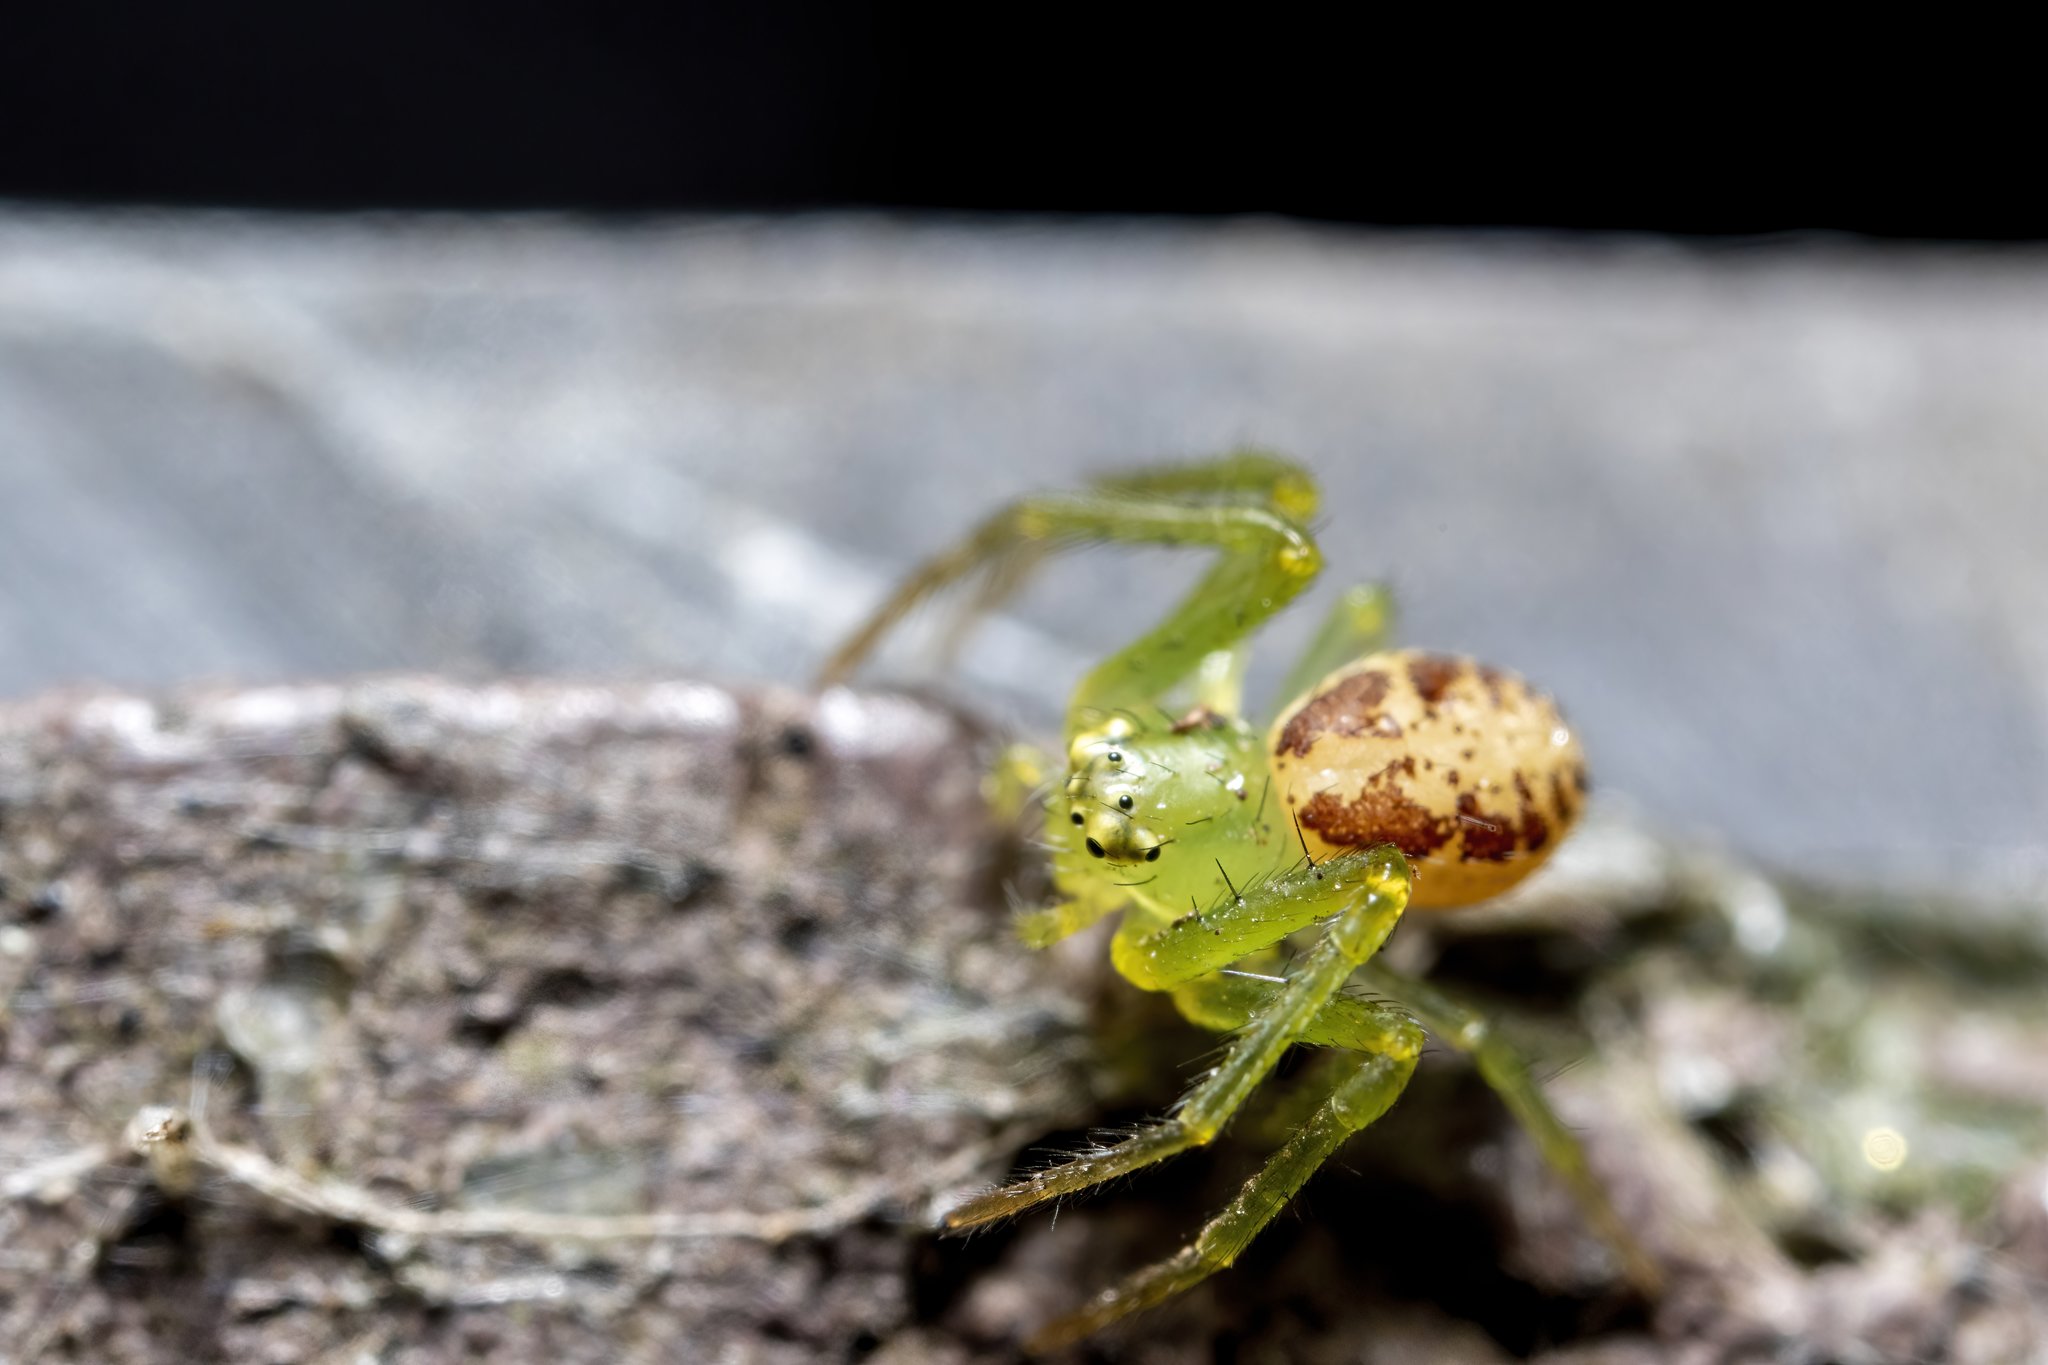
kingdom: Animalia
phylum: Arthropoda
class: Arachnida
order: Araneae
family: Thomisidae
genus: Diaea
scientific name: Diaea dorsata
